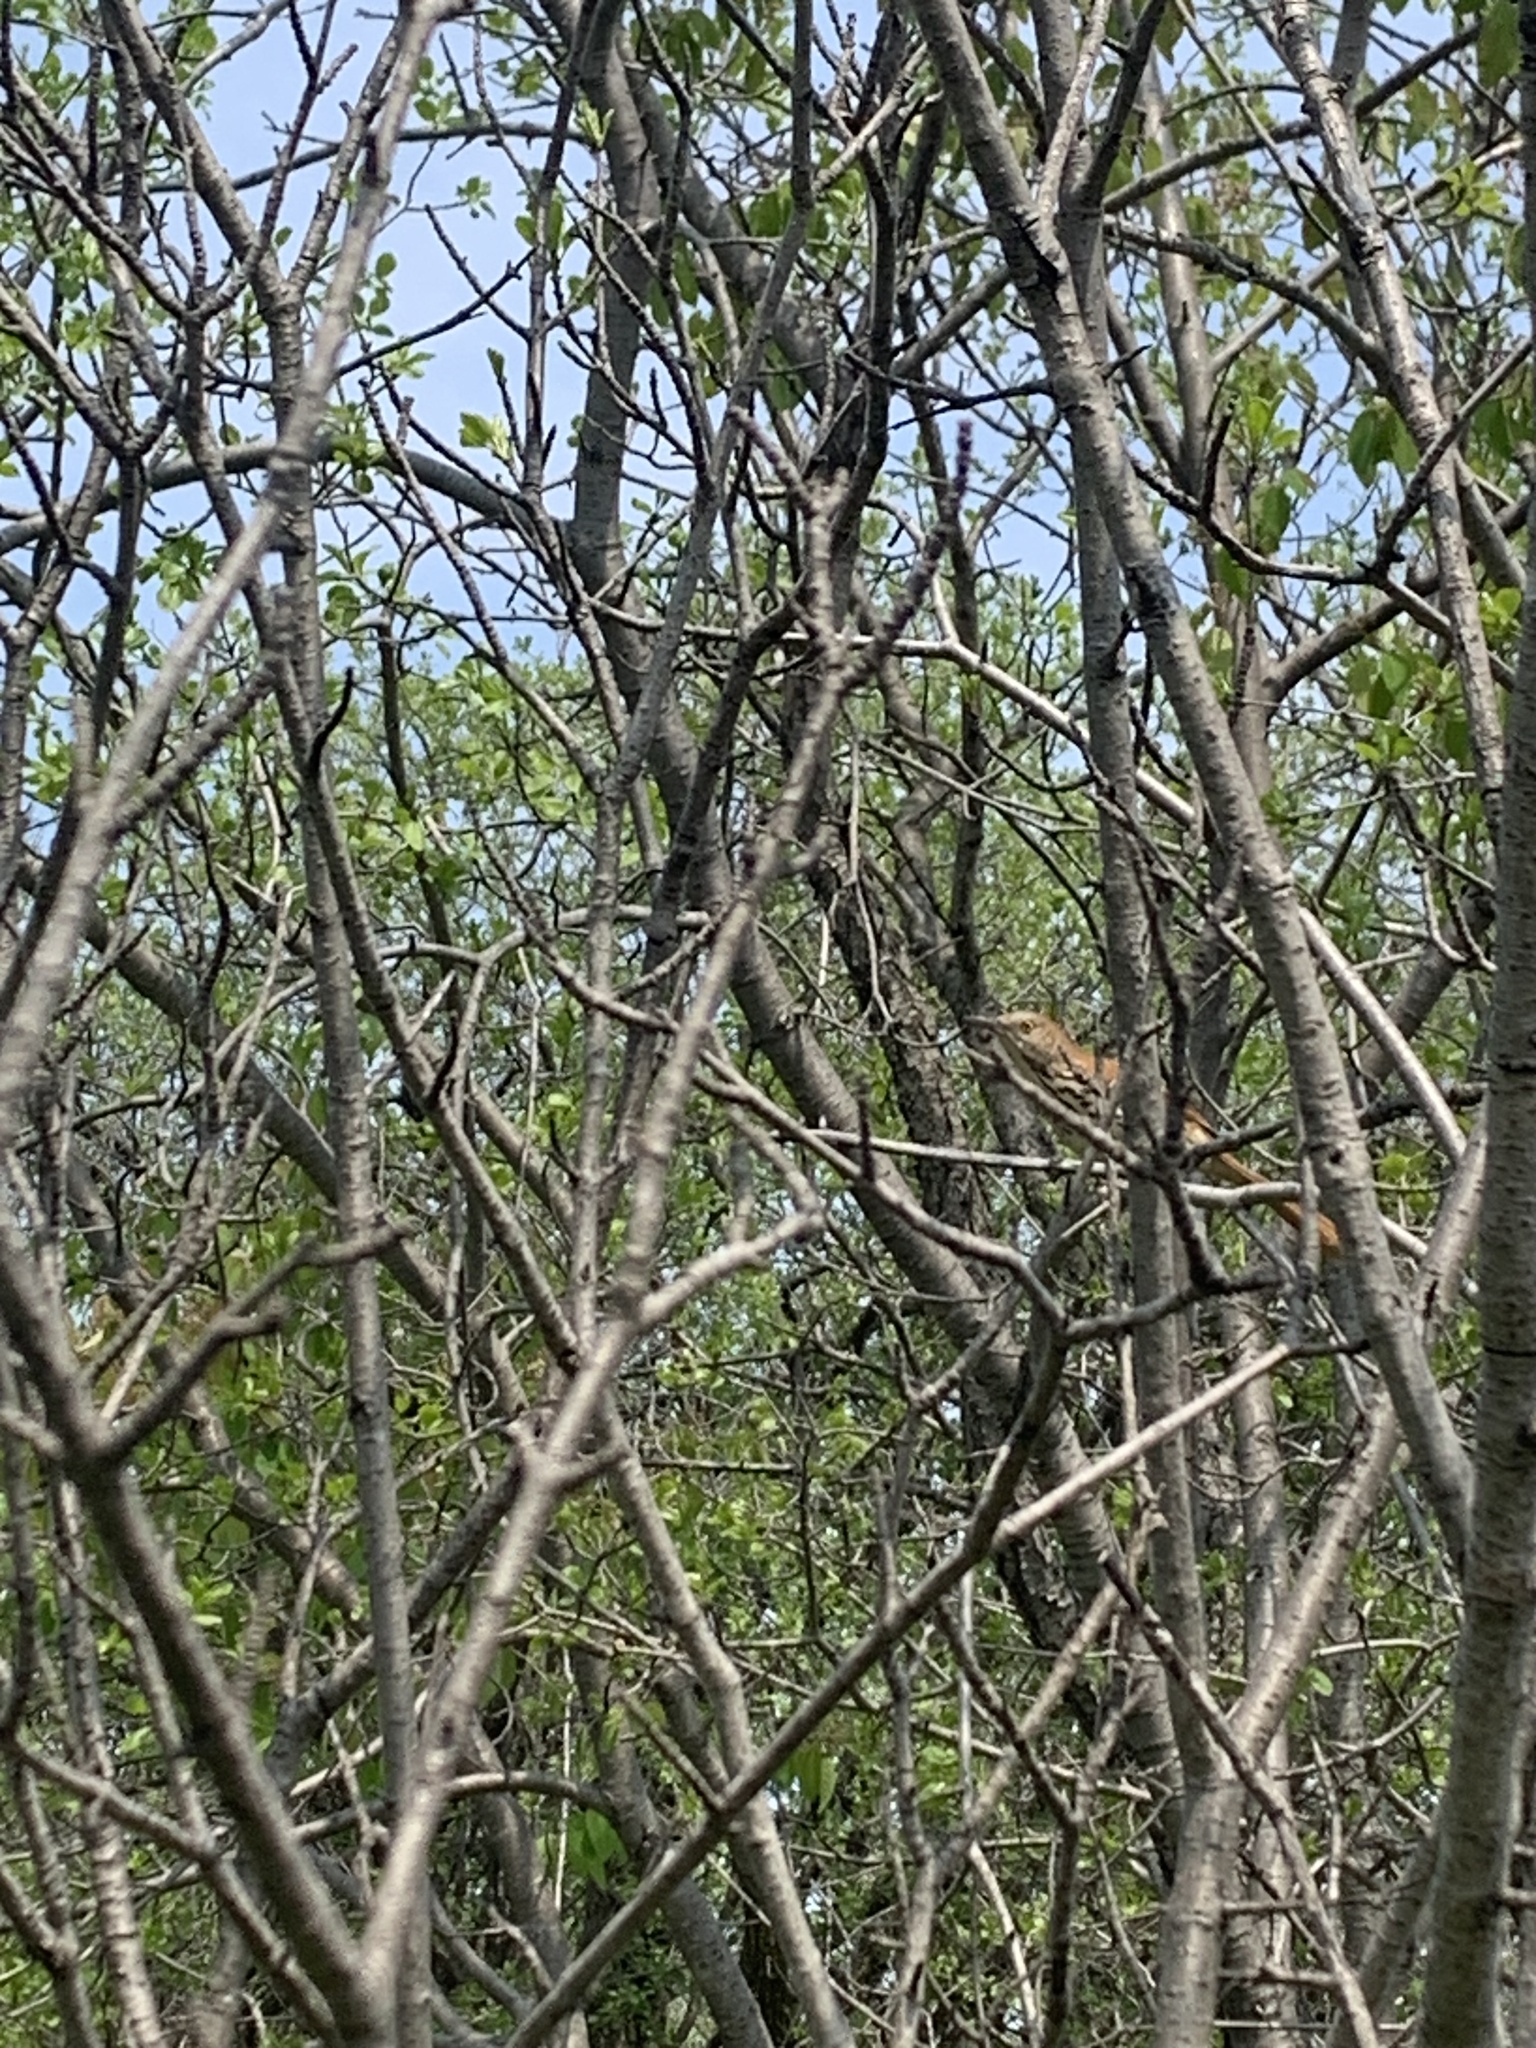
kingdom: Animalia
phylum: Chordata
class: Aves
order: Passeriformes
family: Mimidae
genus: Toxostoma
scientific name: Toxostoma rufum
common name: Brown thrasher
